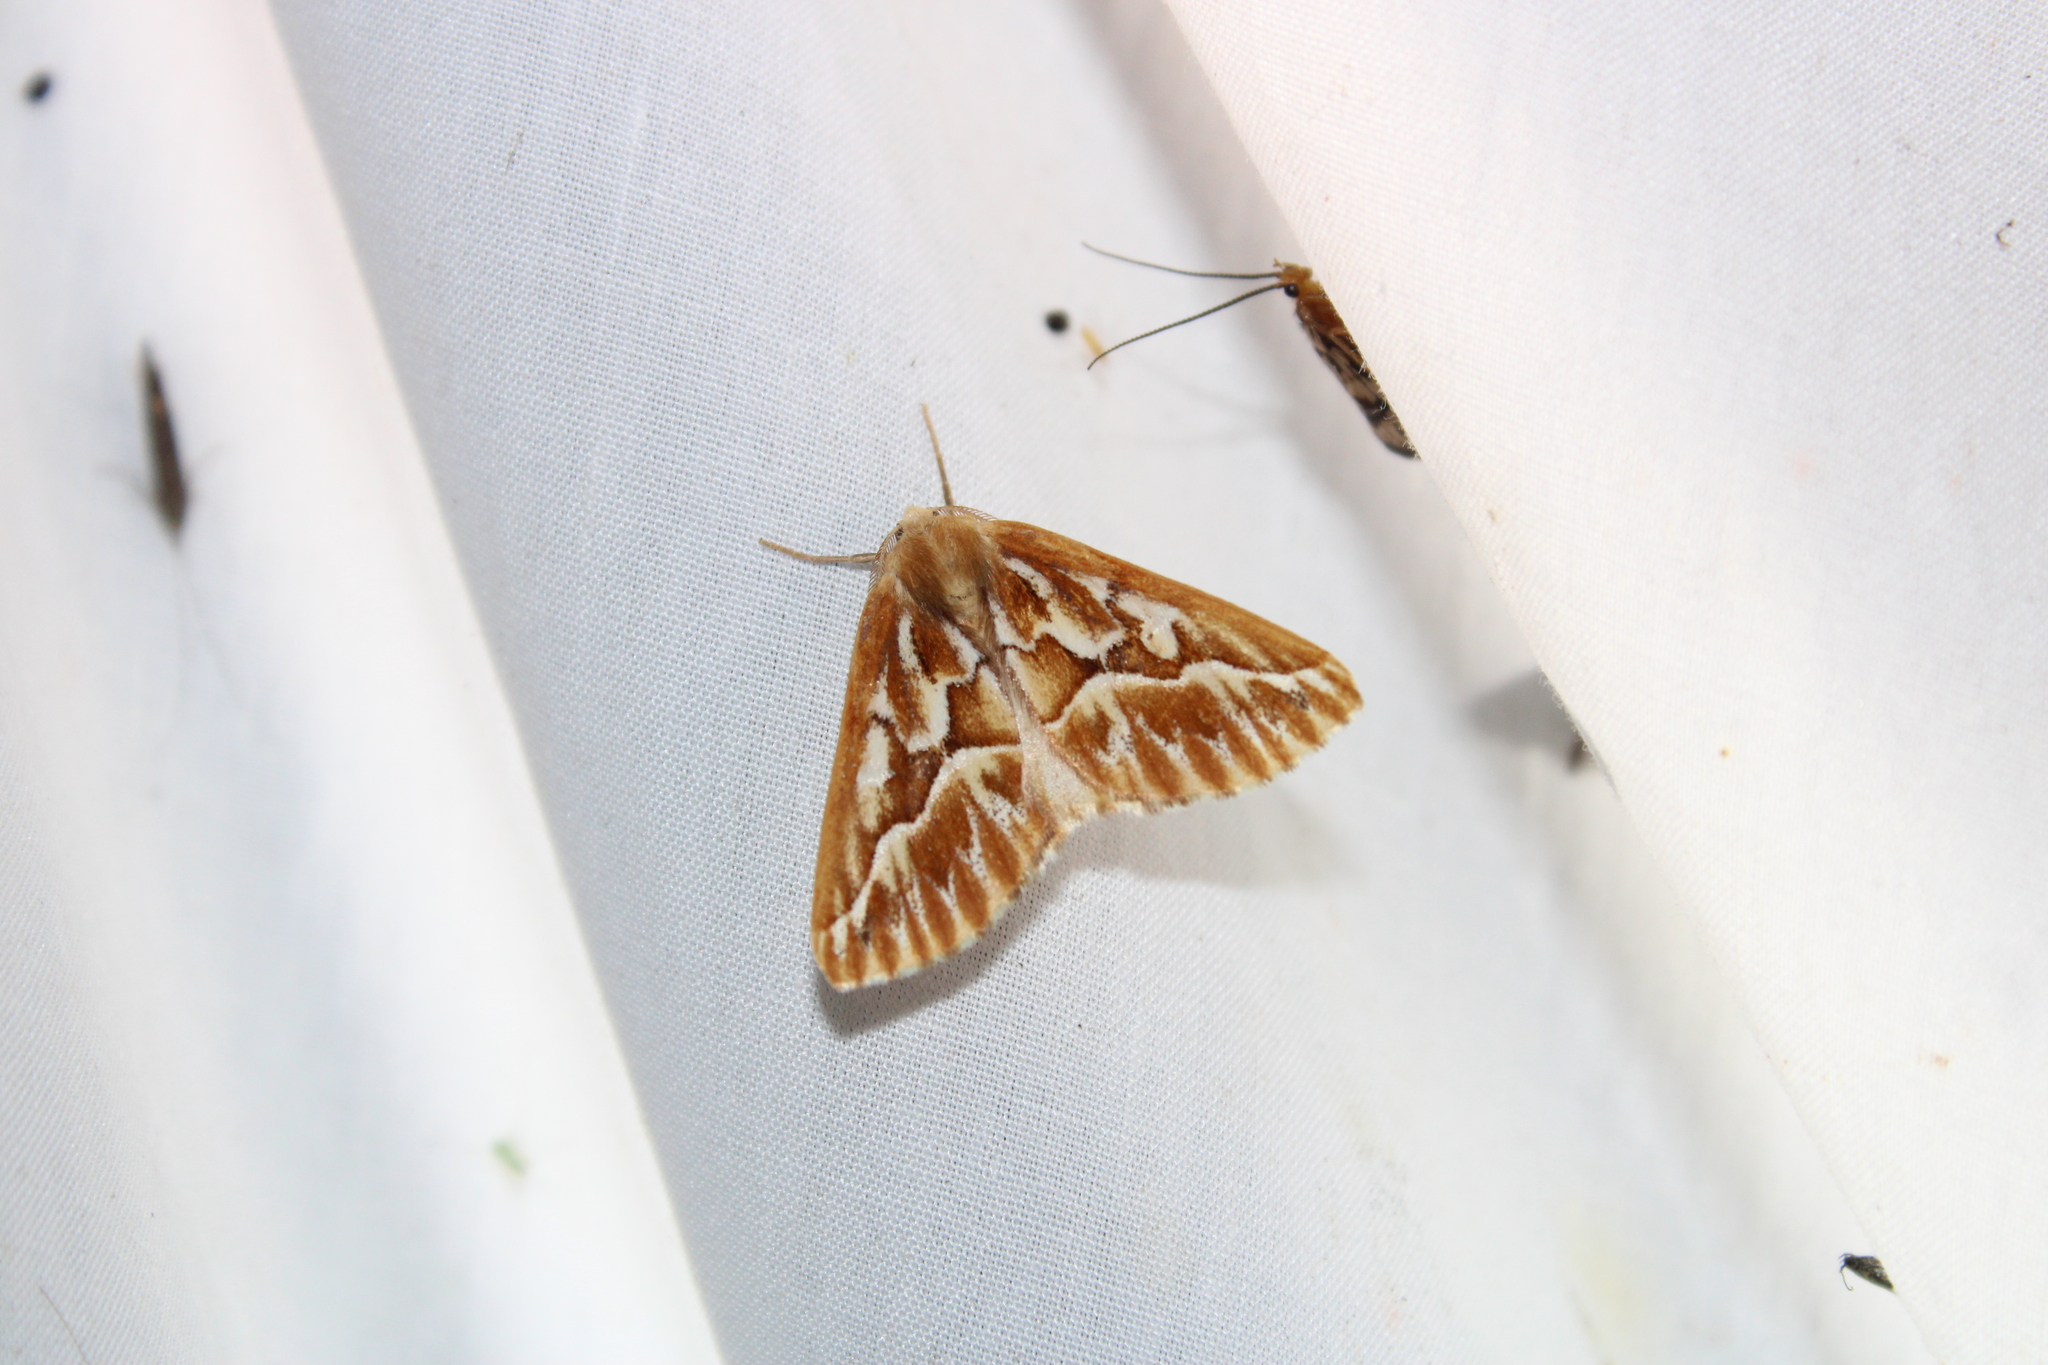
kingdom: Animalia
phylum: Arthropoda
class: Insecta
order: Lepidoptera
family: Geometridae
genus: Caripeta
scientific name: Caripeta piniata
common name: Northern pine looper moth
